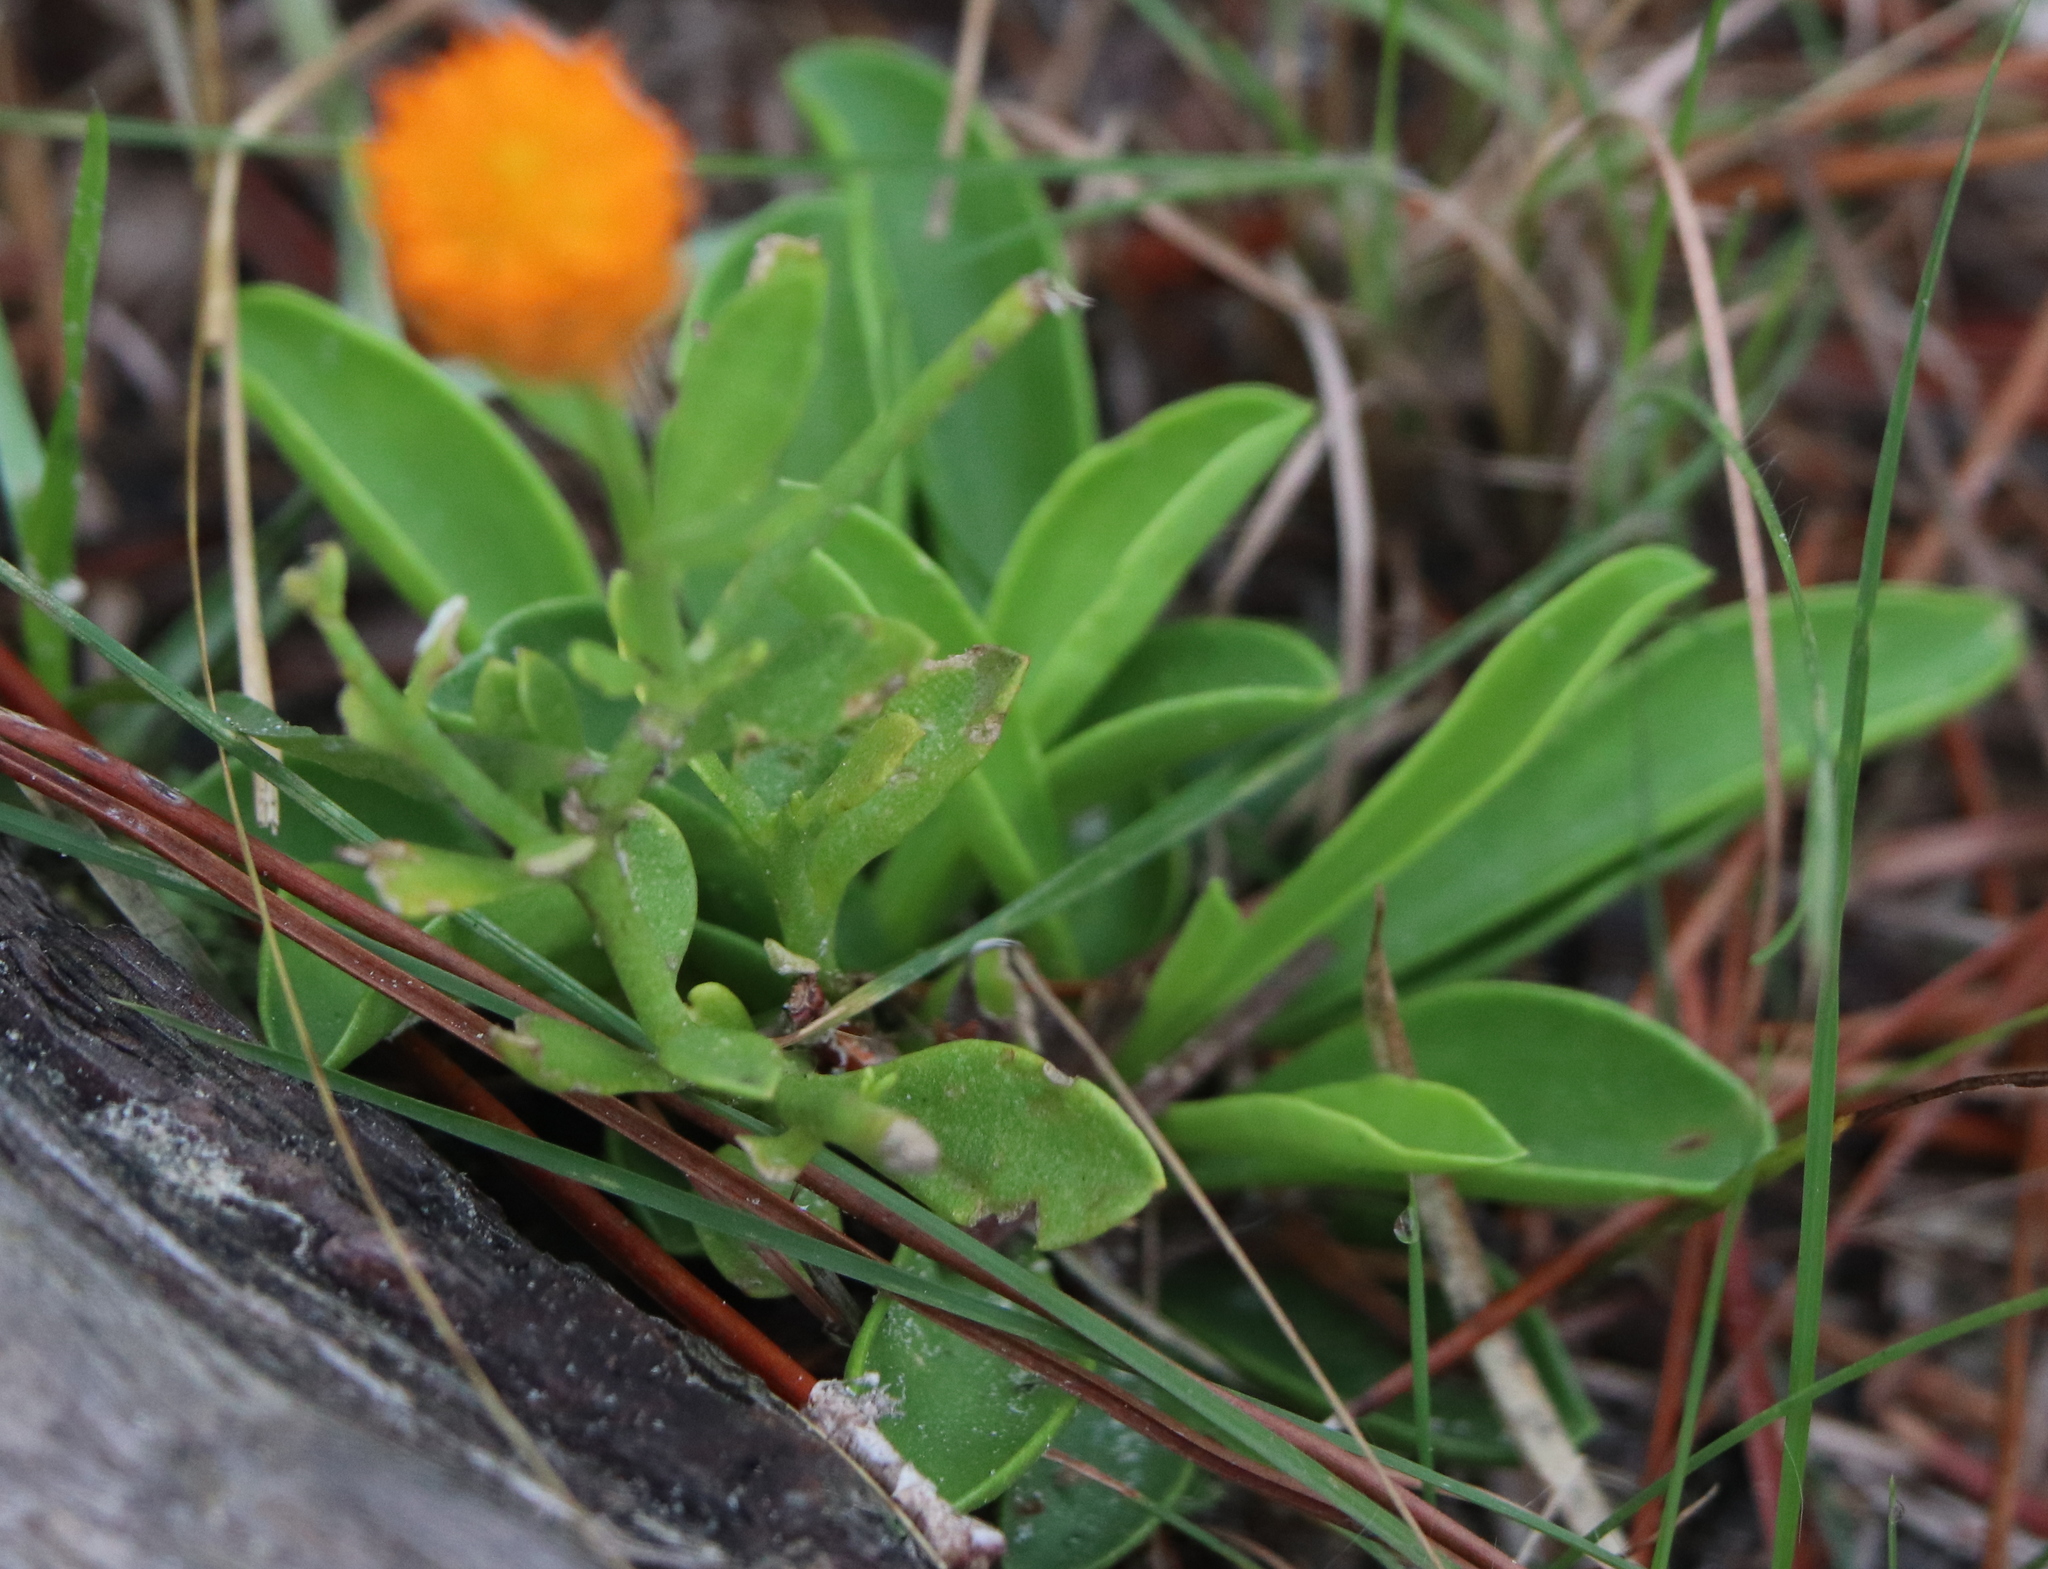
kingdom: Plantae
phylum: Tracheophyta
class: Magnoliopsida
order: Fabales
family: Polygalaceae
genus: Polygala
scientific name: Polygala lutea
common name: Orange milkwort
